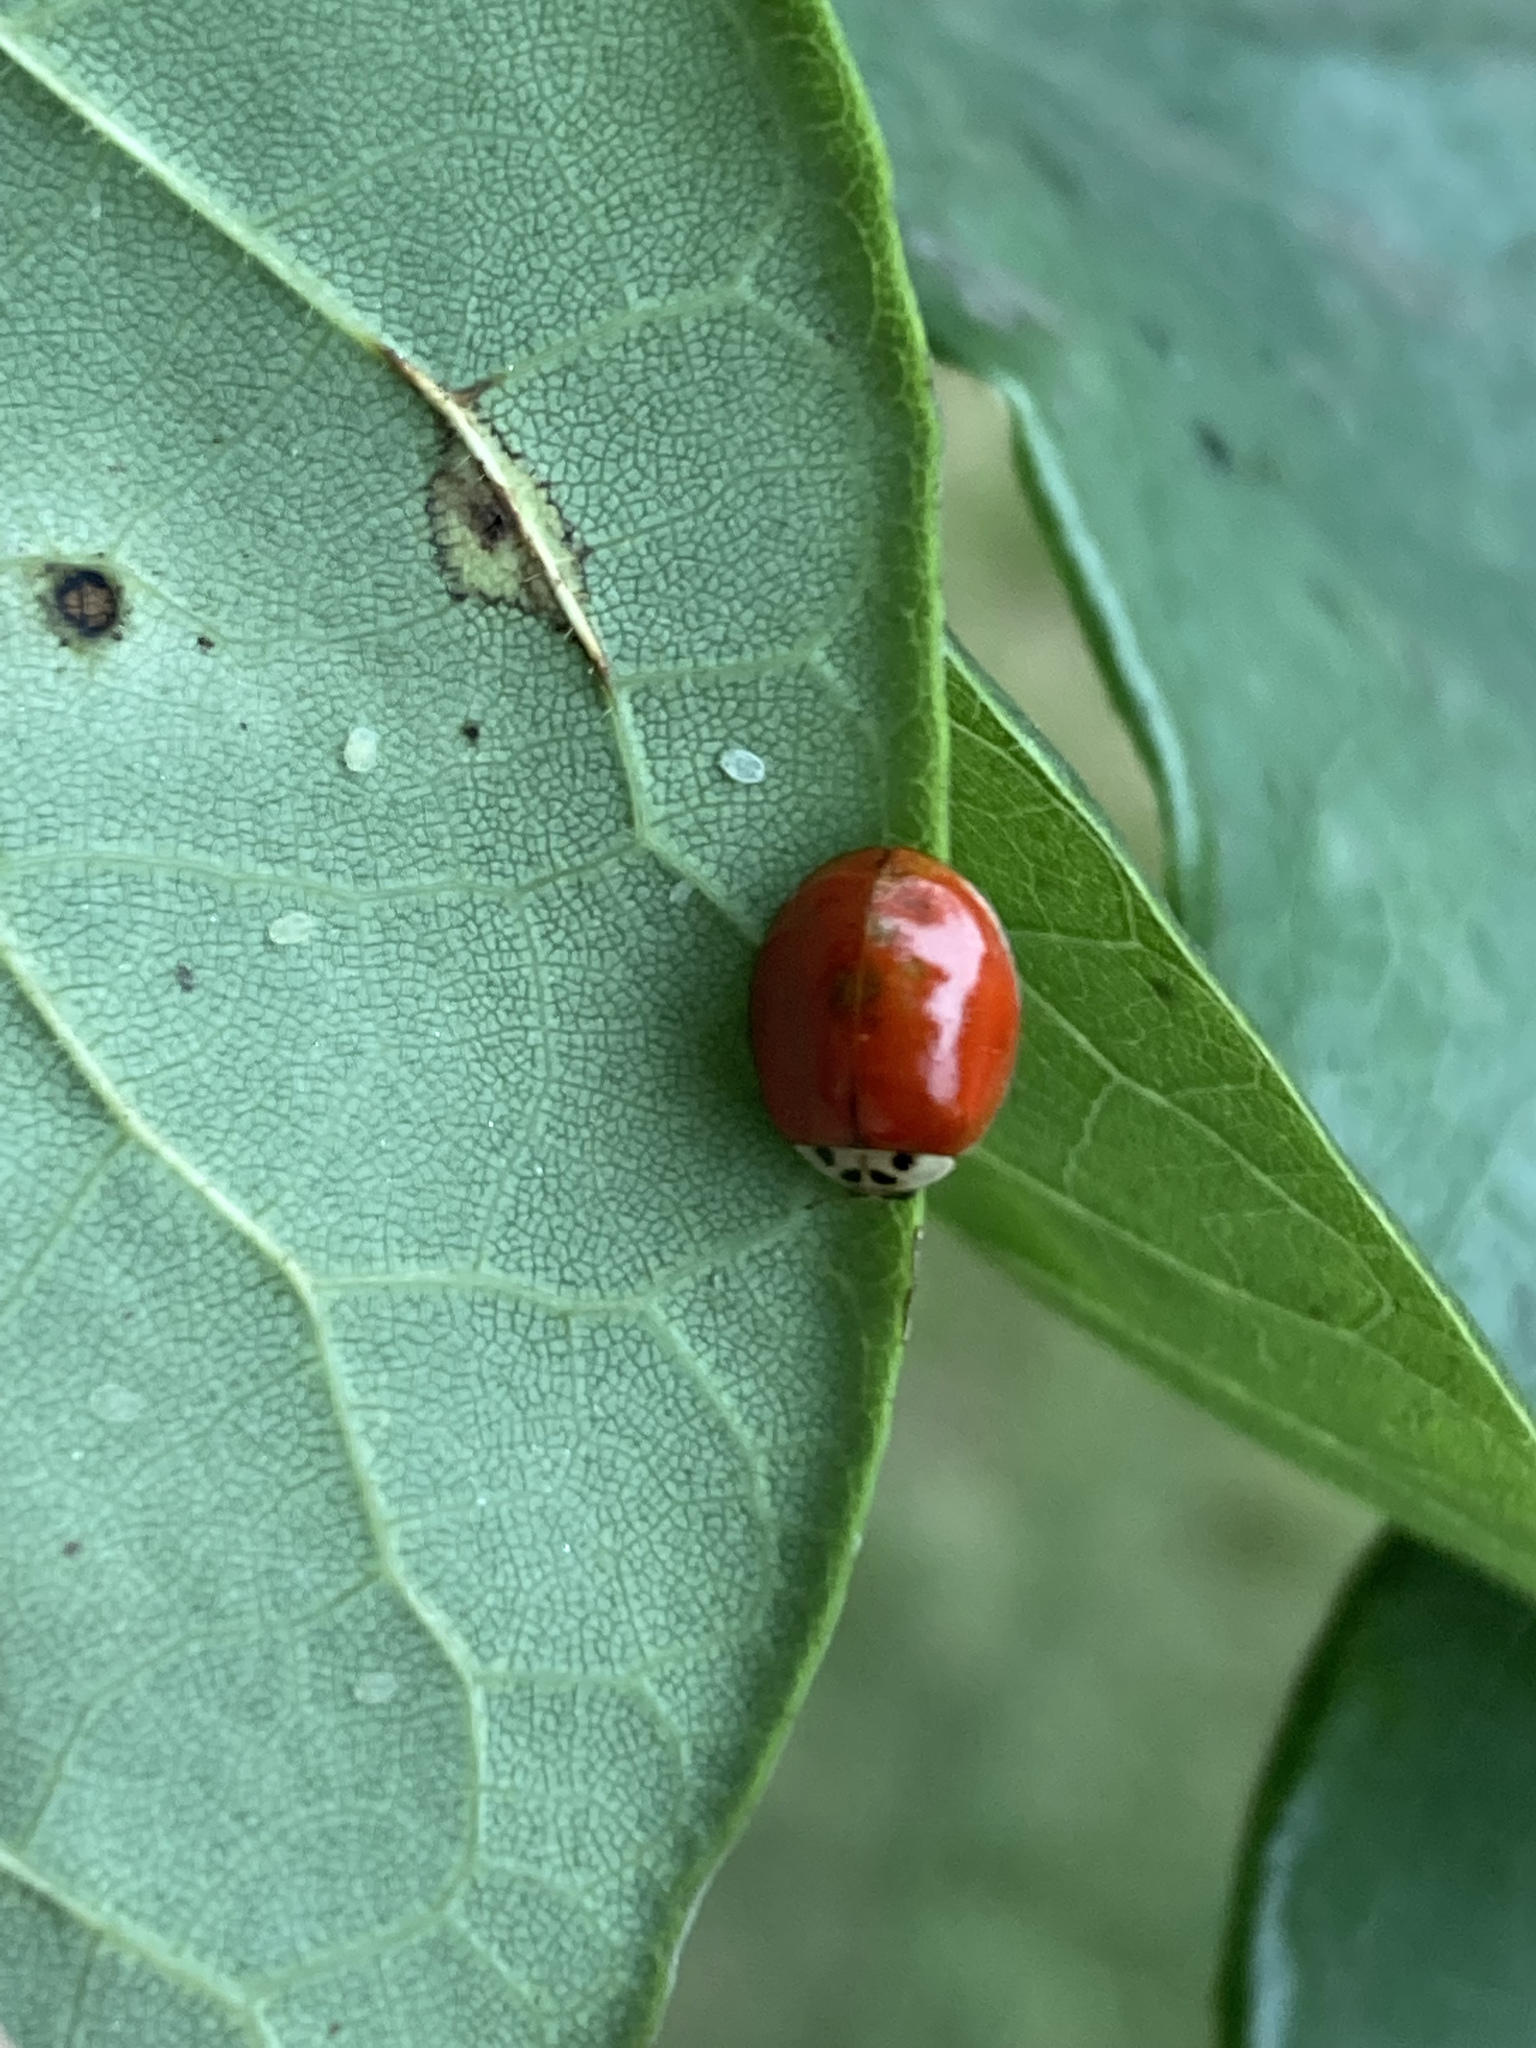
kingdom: Animalia
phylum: Arthropoda
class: Insecta
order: Coleoptera
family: Coccinellidae
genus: Harmonia
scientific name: Harmonia axyridis
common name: Harlequin ladybird
